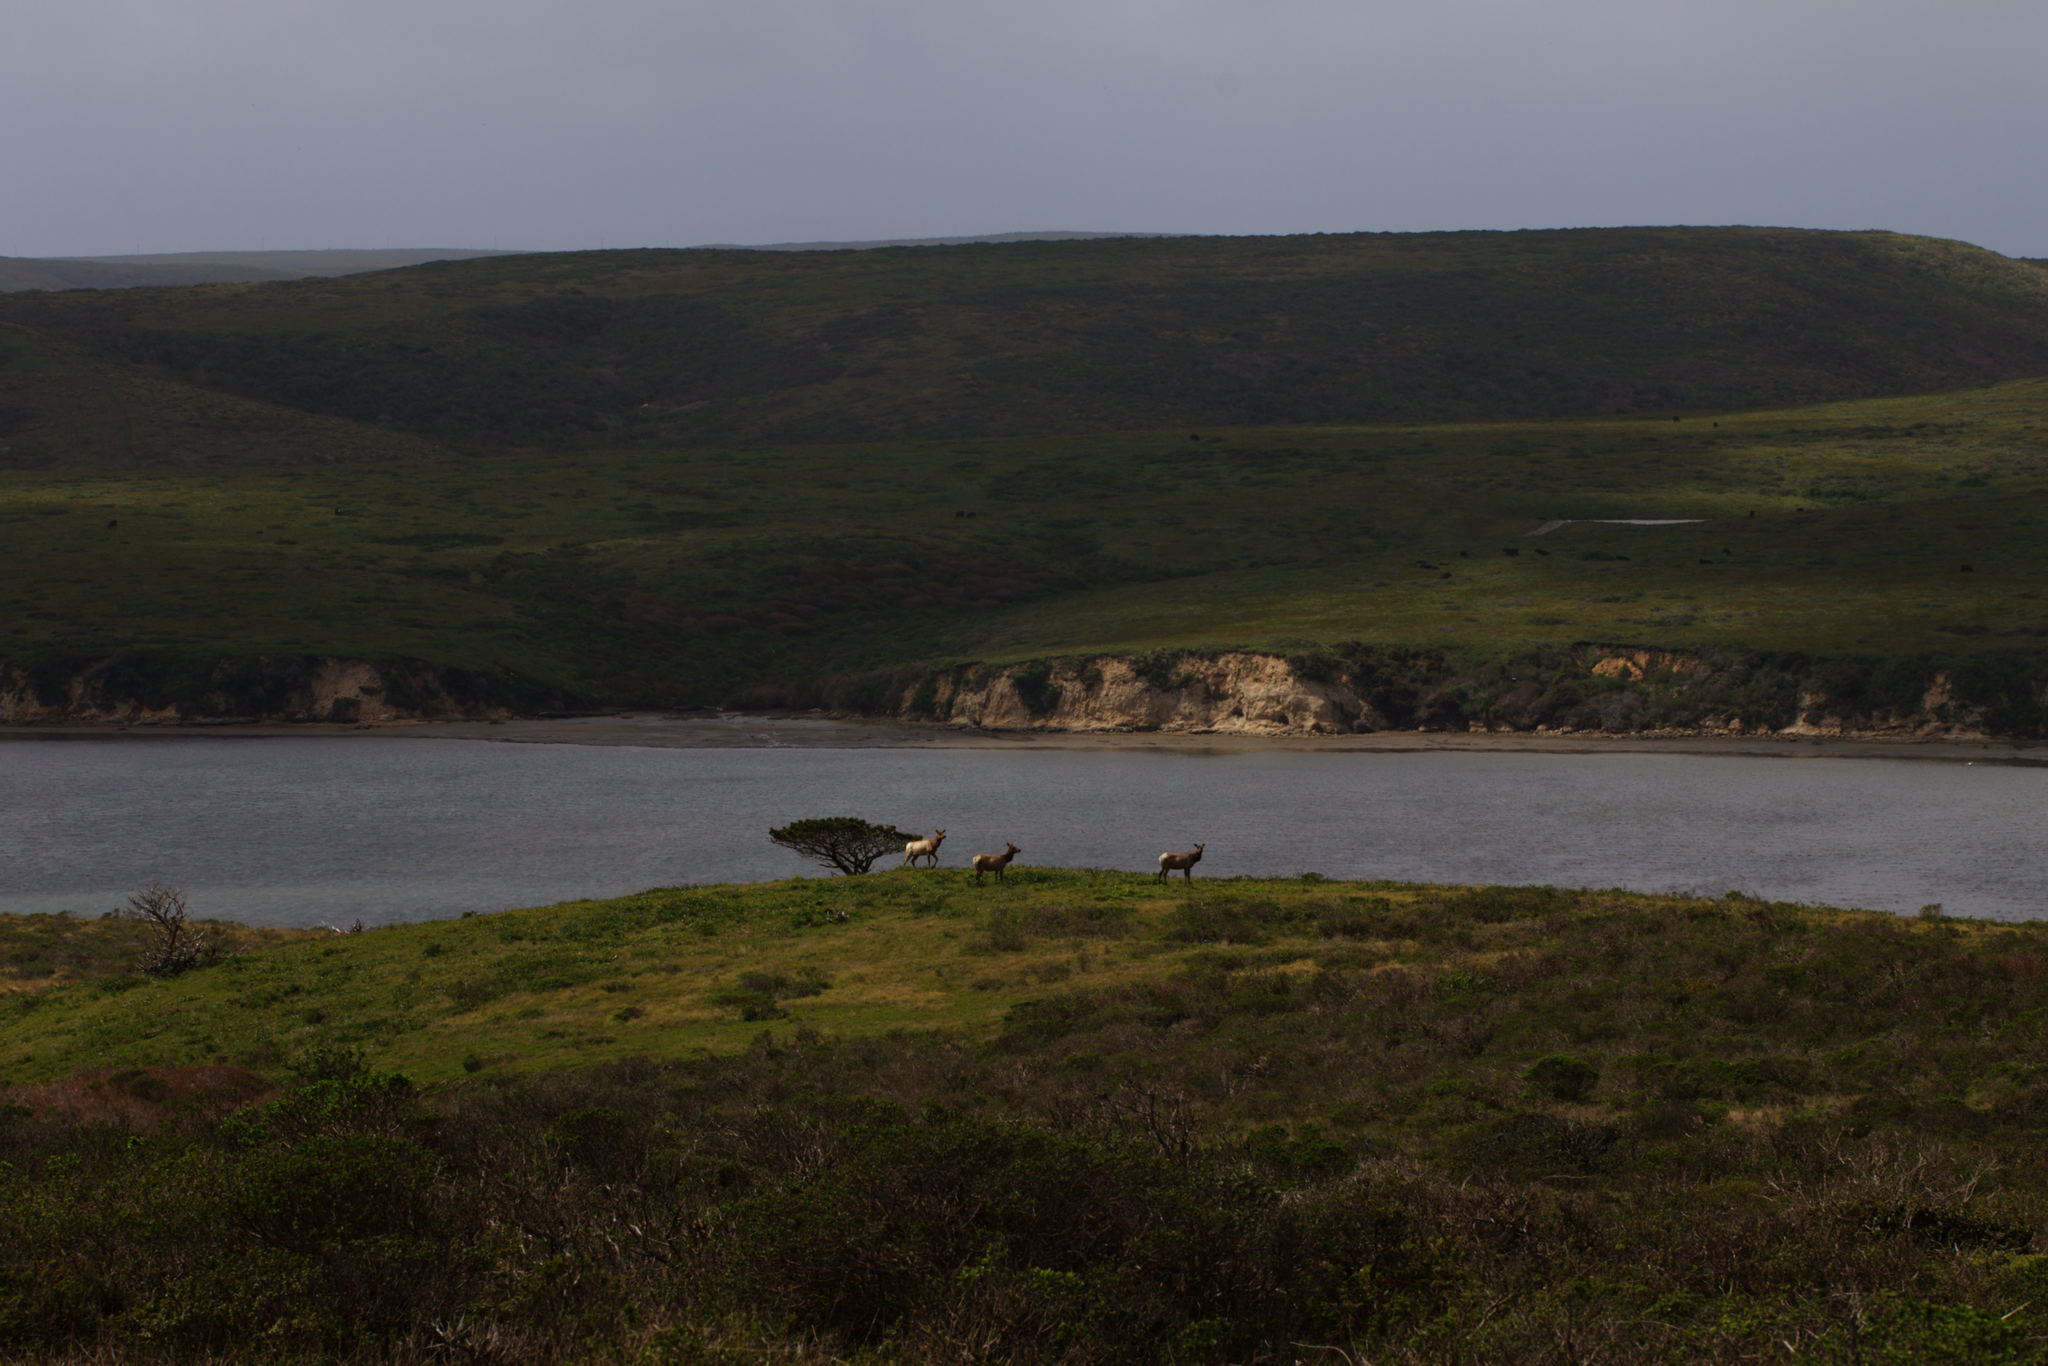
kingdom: Animalia
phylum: Chordata
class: Mammalia
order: Artiodactyla
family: Cervidae
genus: Cervus
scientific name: Cervus elaphus
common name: Red deer
